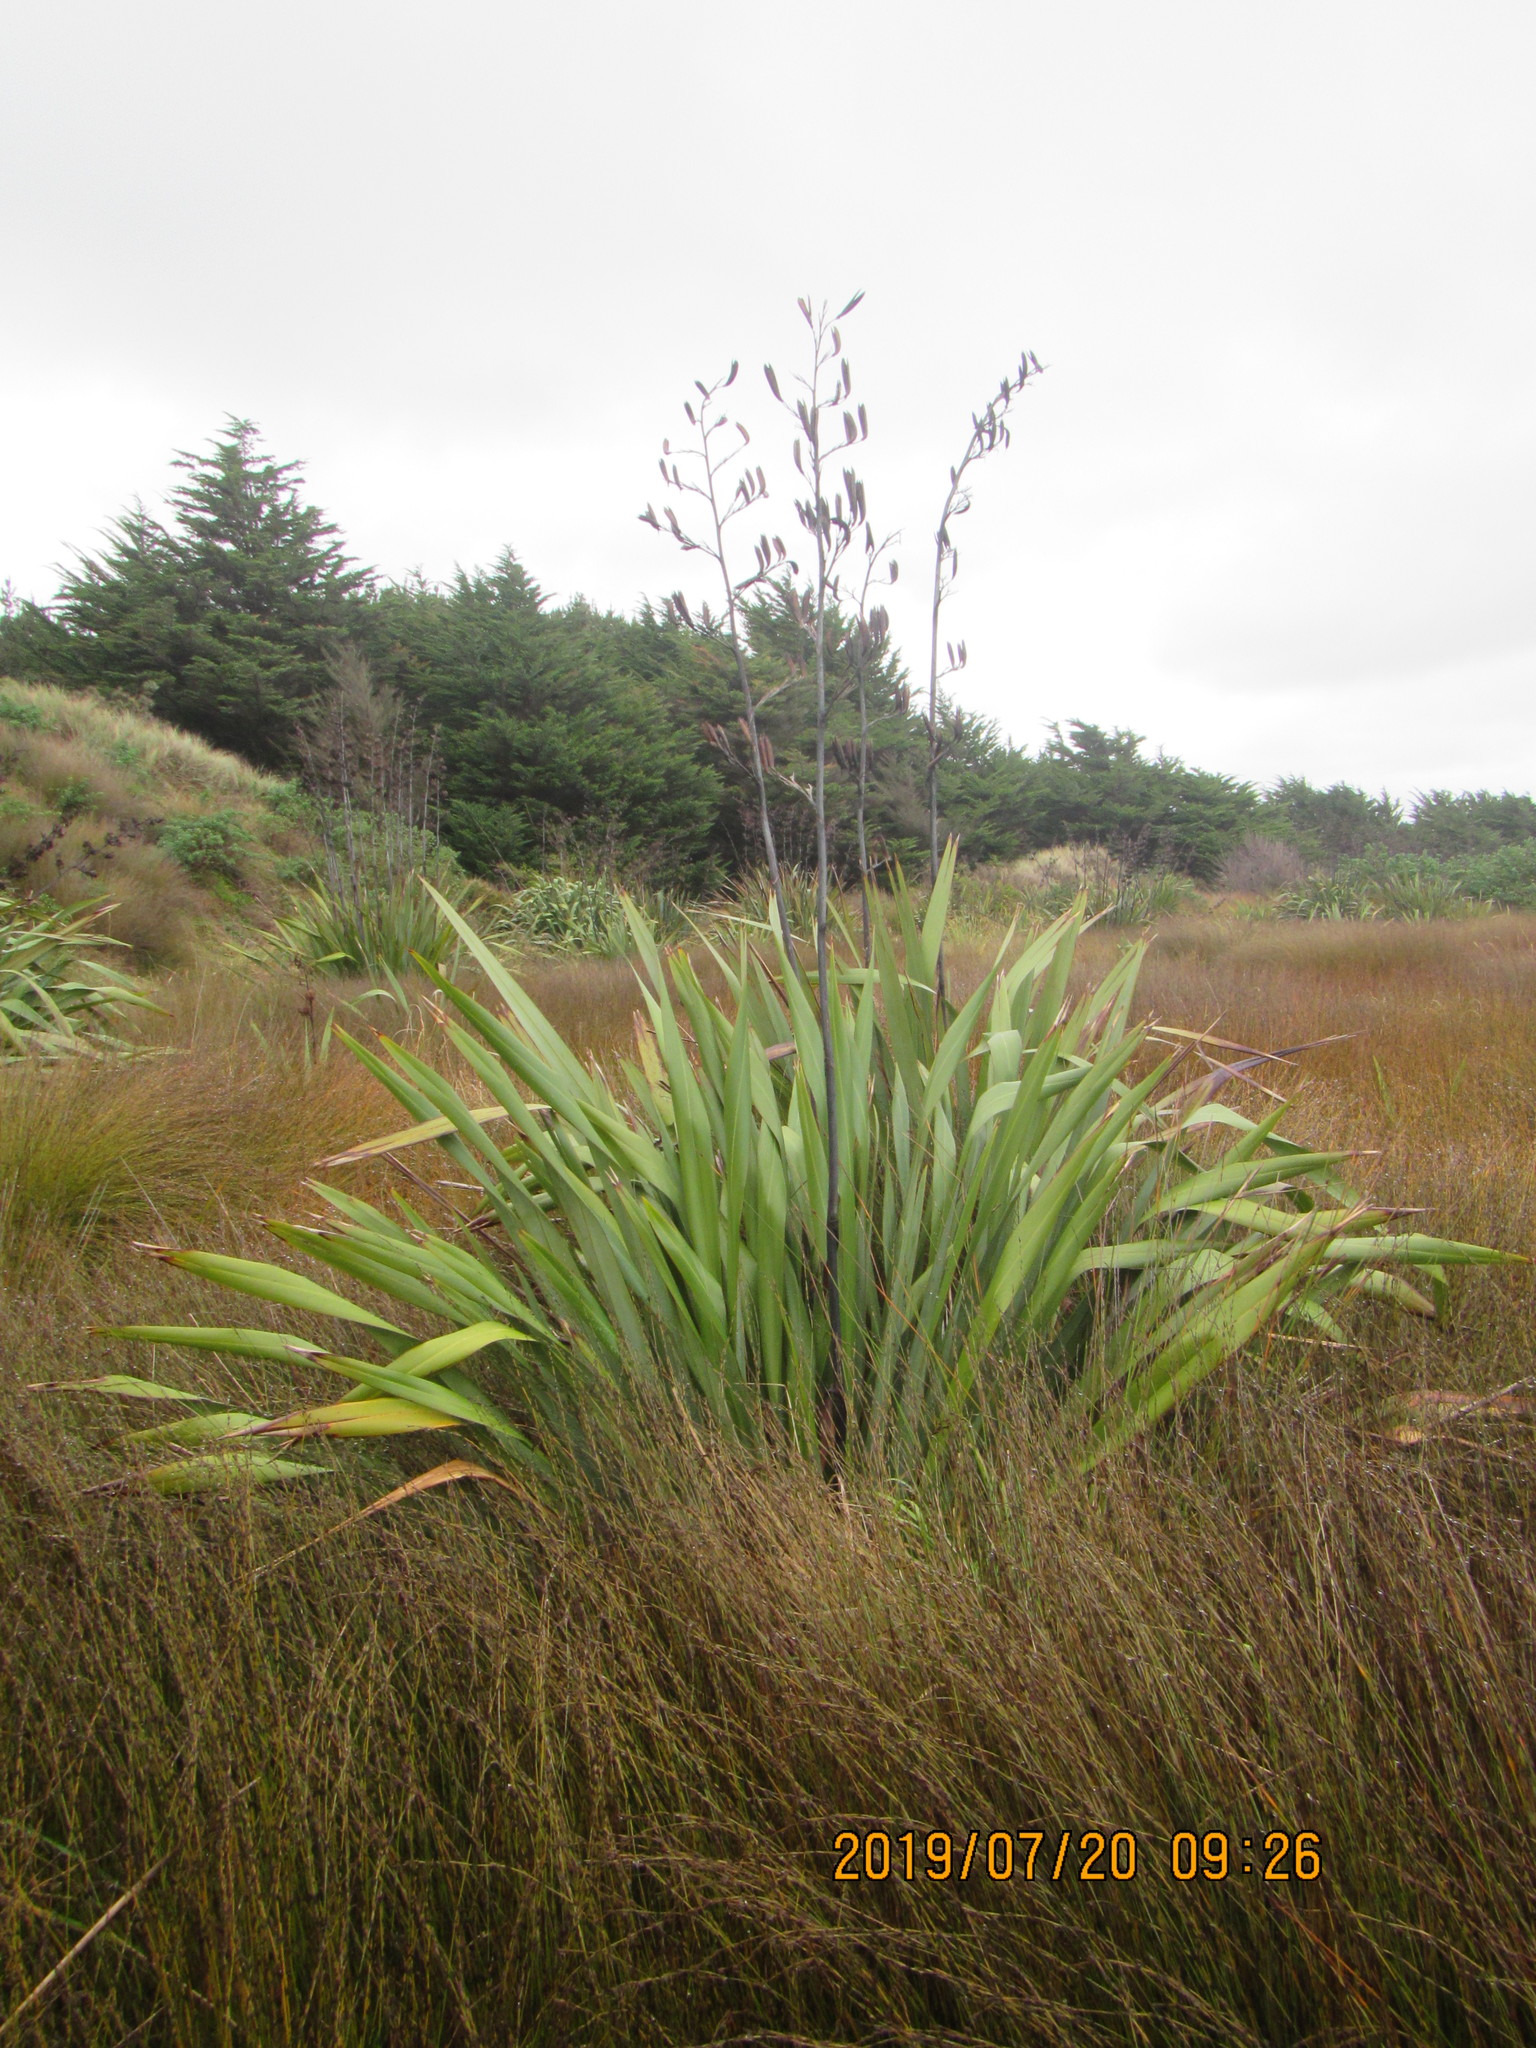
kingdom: Plantae
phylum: Tracheophyta
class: Liliopsida
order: Asparagales
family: Asphodelaceae
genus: Phormium
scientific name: Phormium tenax
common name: New zealand flax
